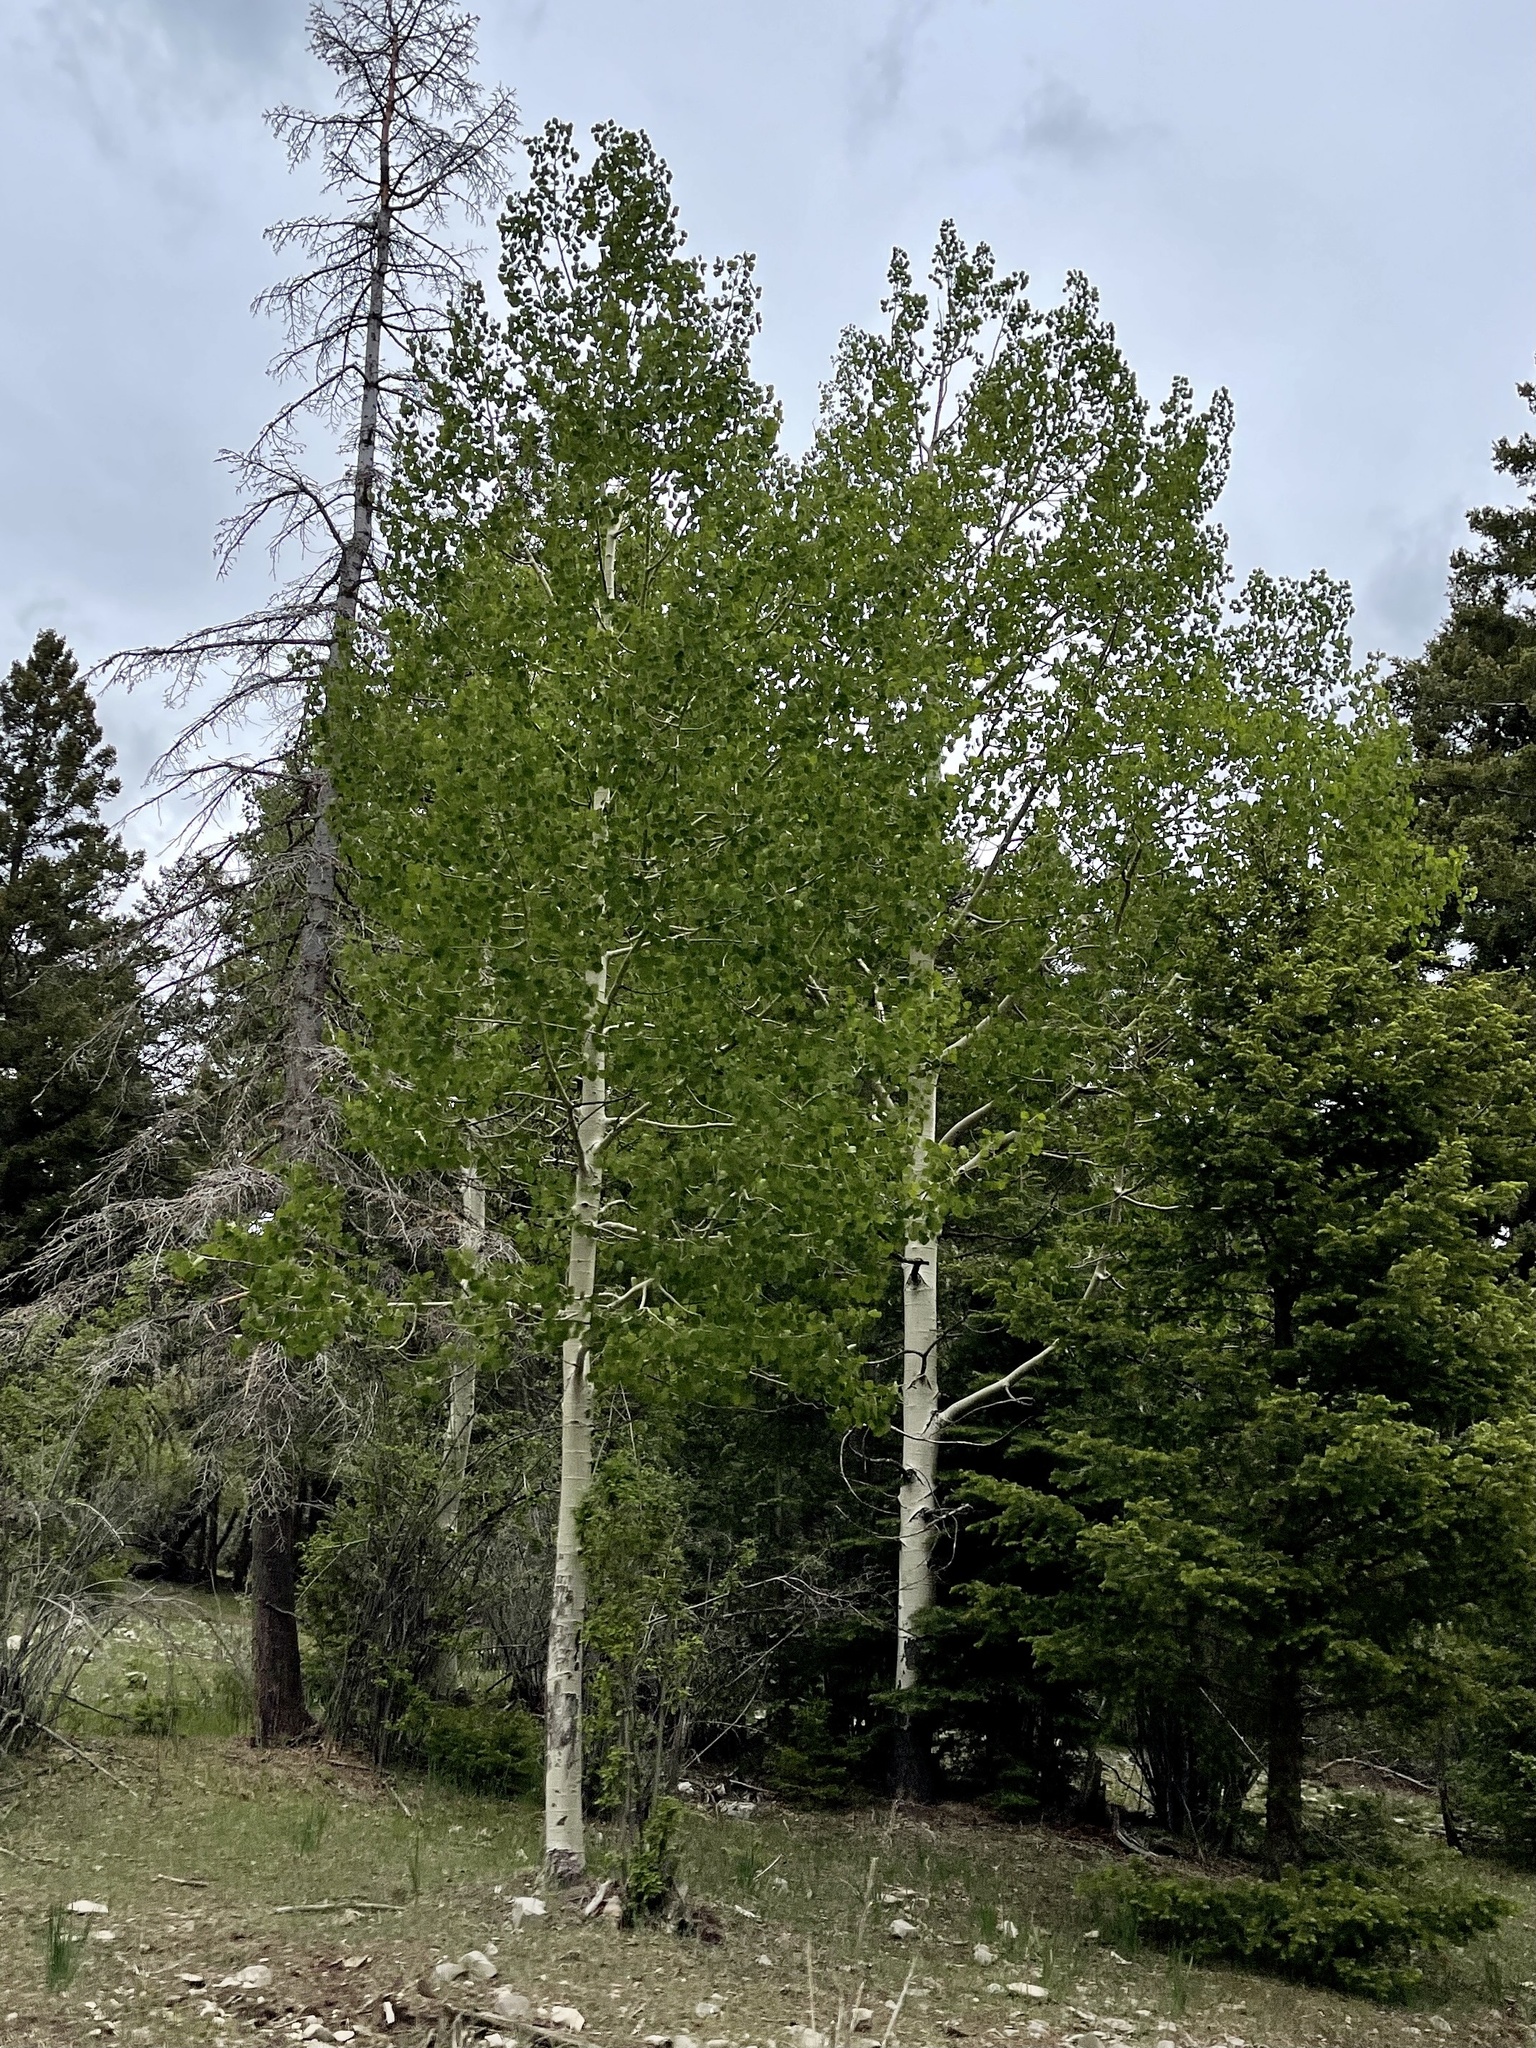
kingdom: Plantae
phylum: Tracheophyta
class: Magnoliopsida
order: Malpighiales
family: Salicaceae
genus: Populus
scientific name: Populus tremuloides
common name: Quaking aspen
